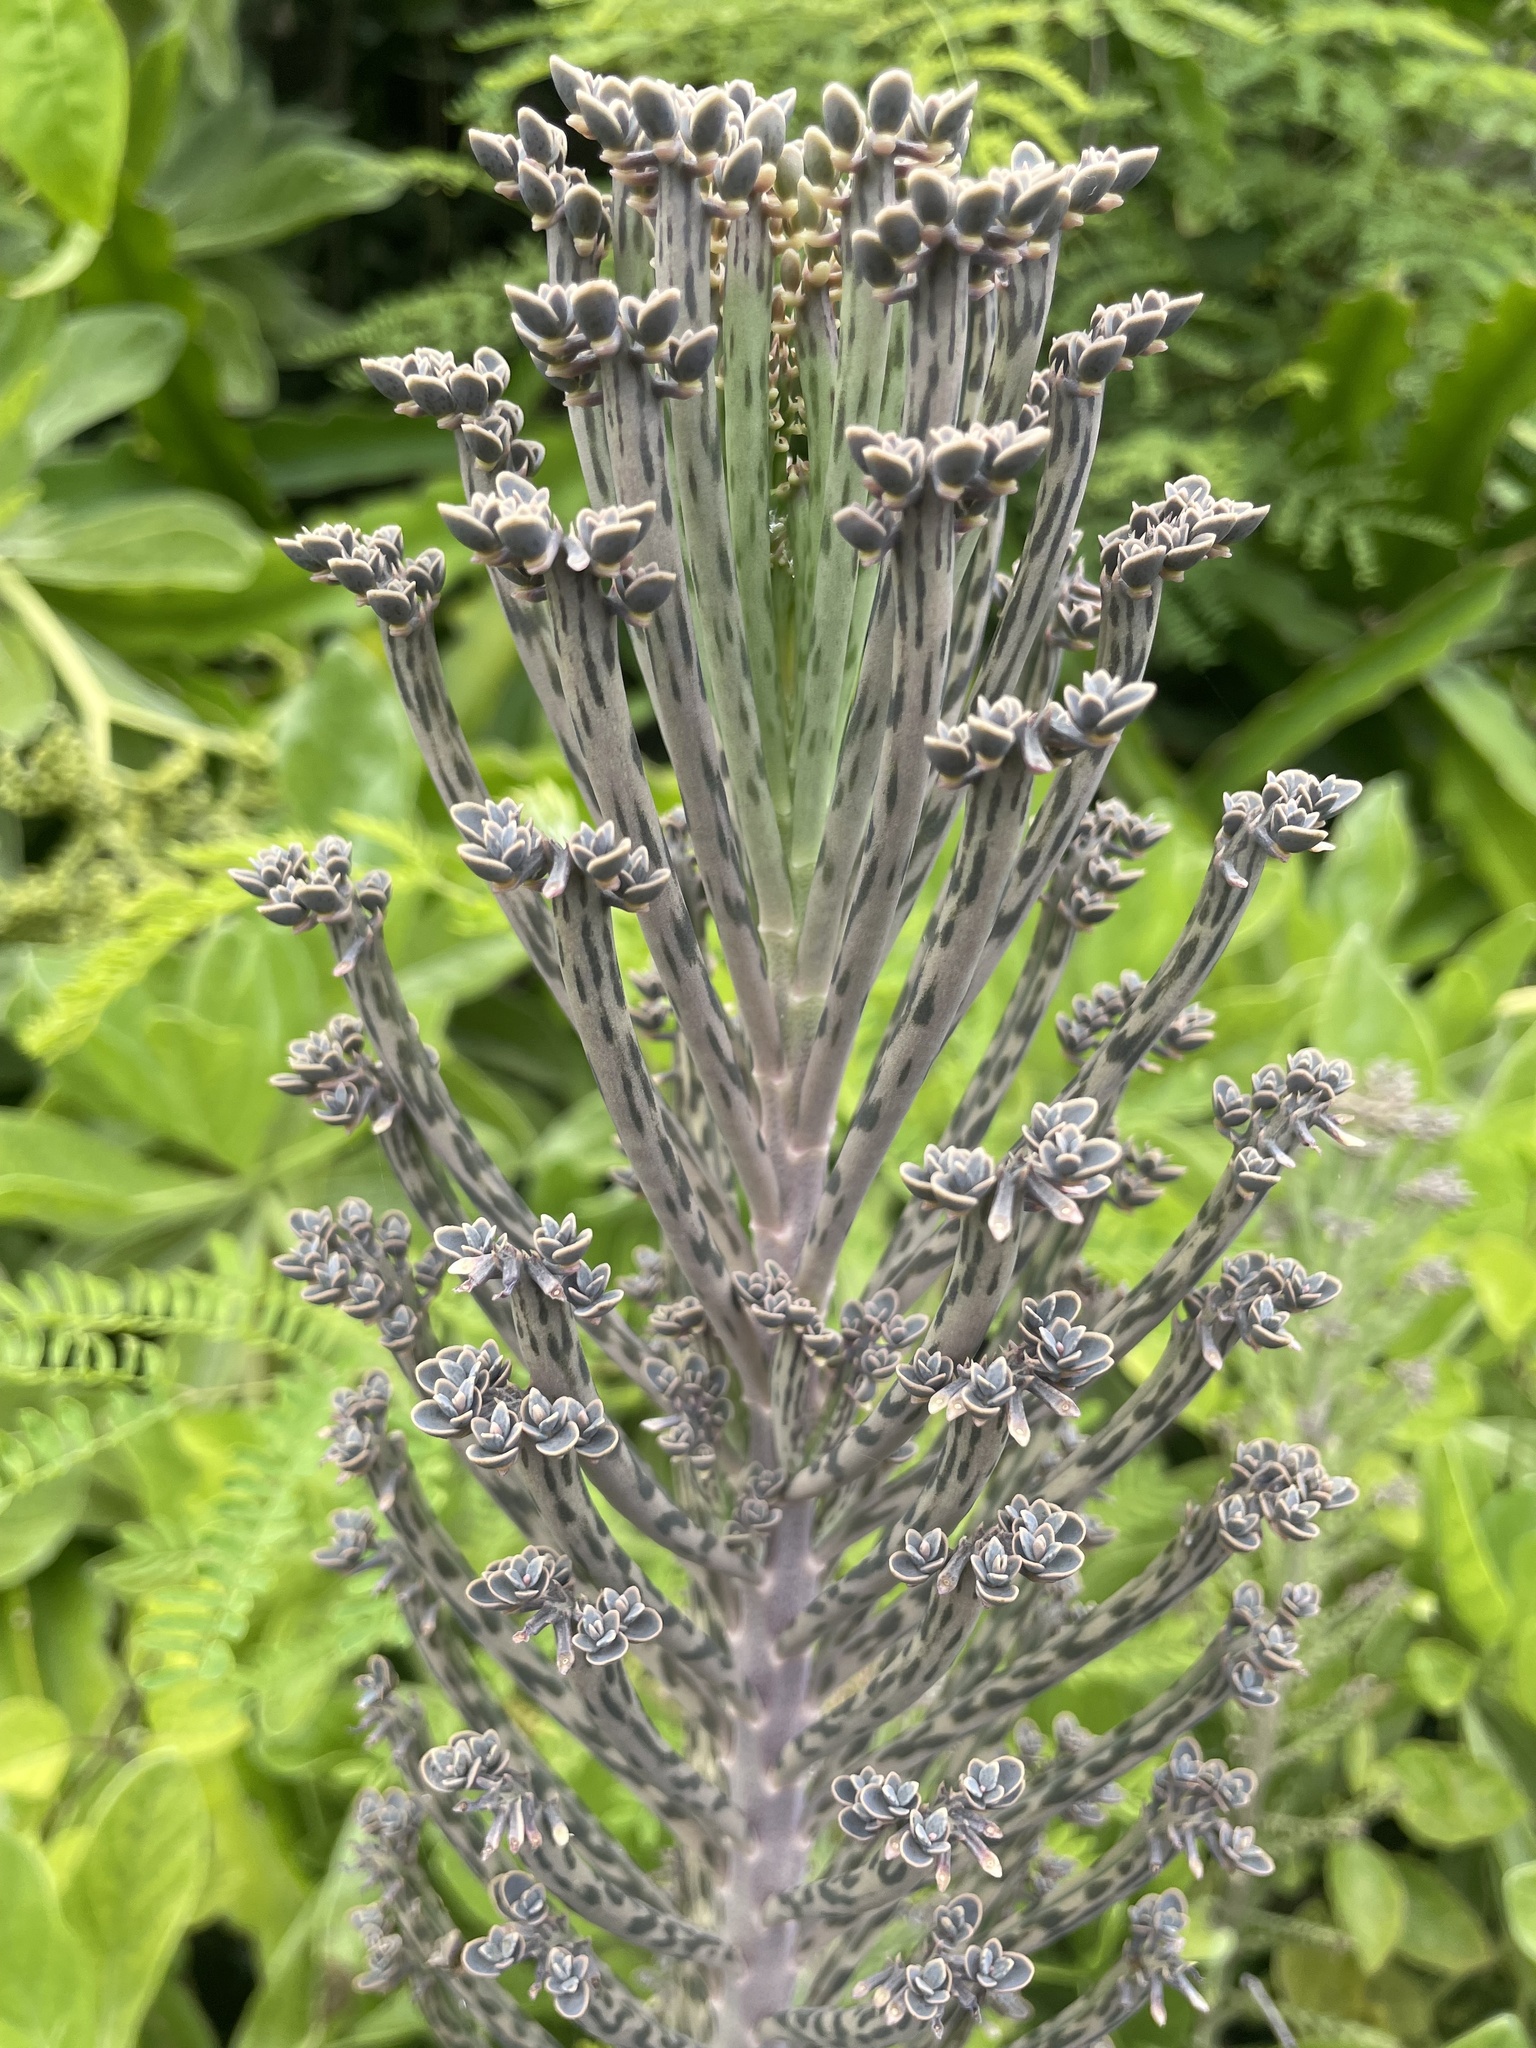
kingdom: Plantae
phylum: Tracheophyta
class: Magnoliopsida
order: Saxifragales
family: Crassulaceae
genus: Kalanchoe
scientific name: Kalanchoe delagoensis
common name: Chandelier plant
